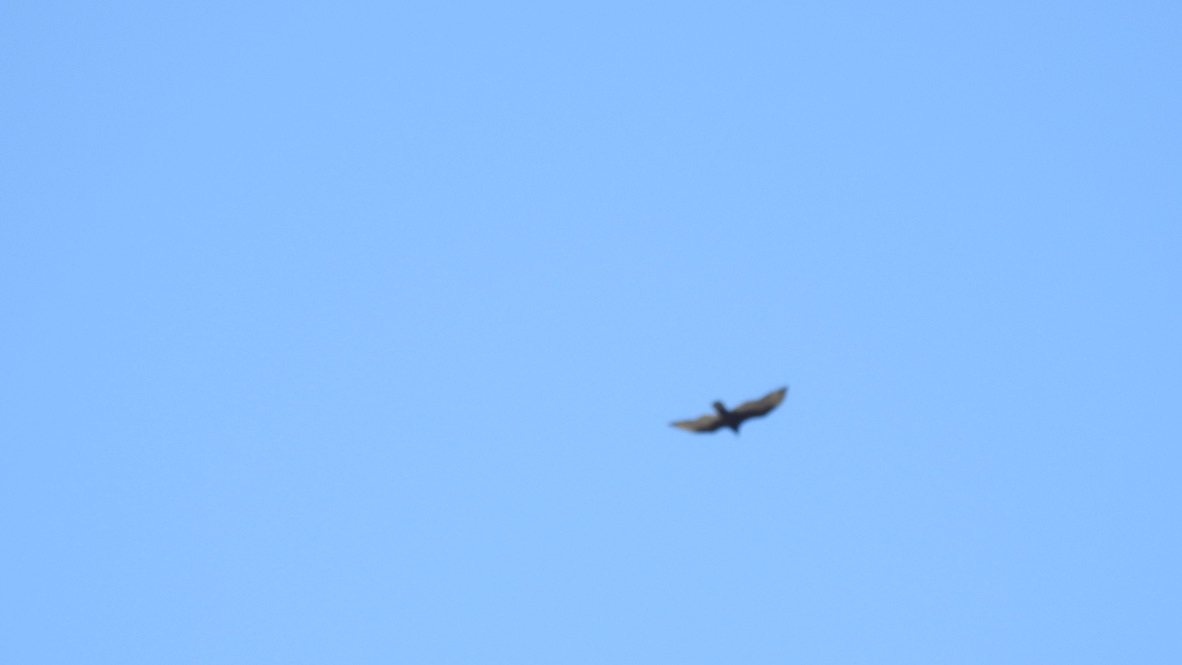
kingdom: Animalia
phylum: Chordata
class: Aves
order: Accipitriformes
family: Cathartidae
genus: Cathartes
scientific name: Cathartes aura
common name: Turkey vulture
